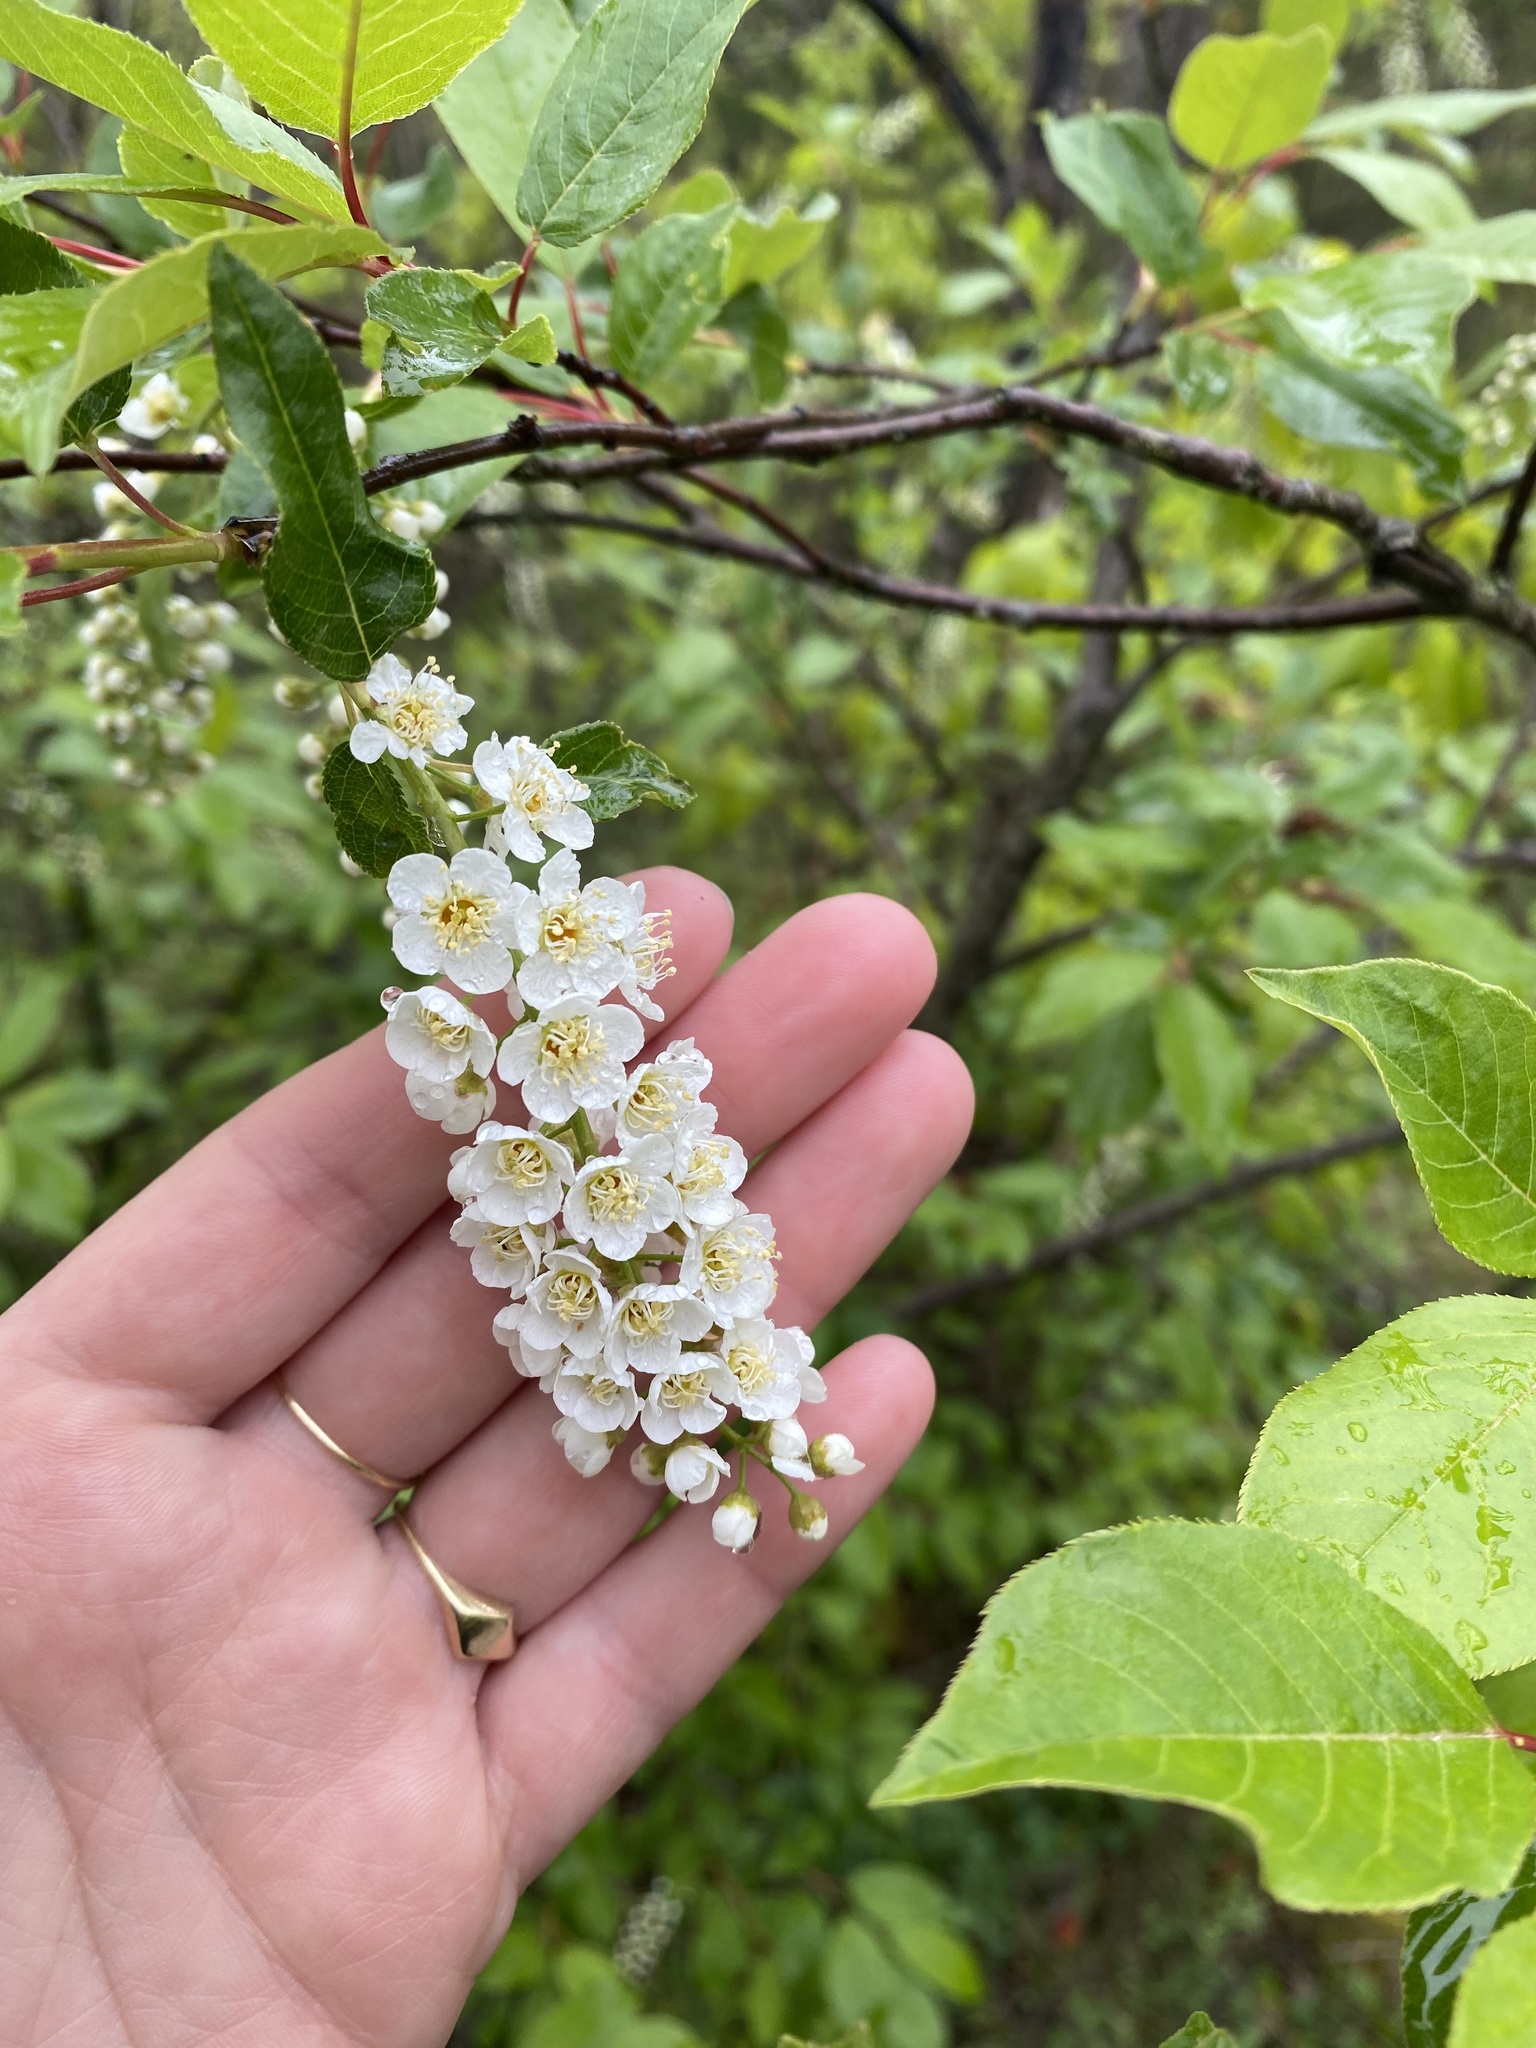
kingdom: Plantae
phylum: Tracheophyta
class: Magnoliopsida
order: Rosales
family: Rosaceae
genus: Prunus
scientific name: Prunus virginiana
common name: Chokecherry
